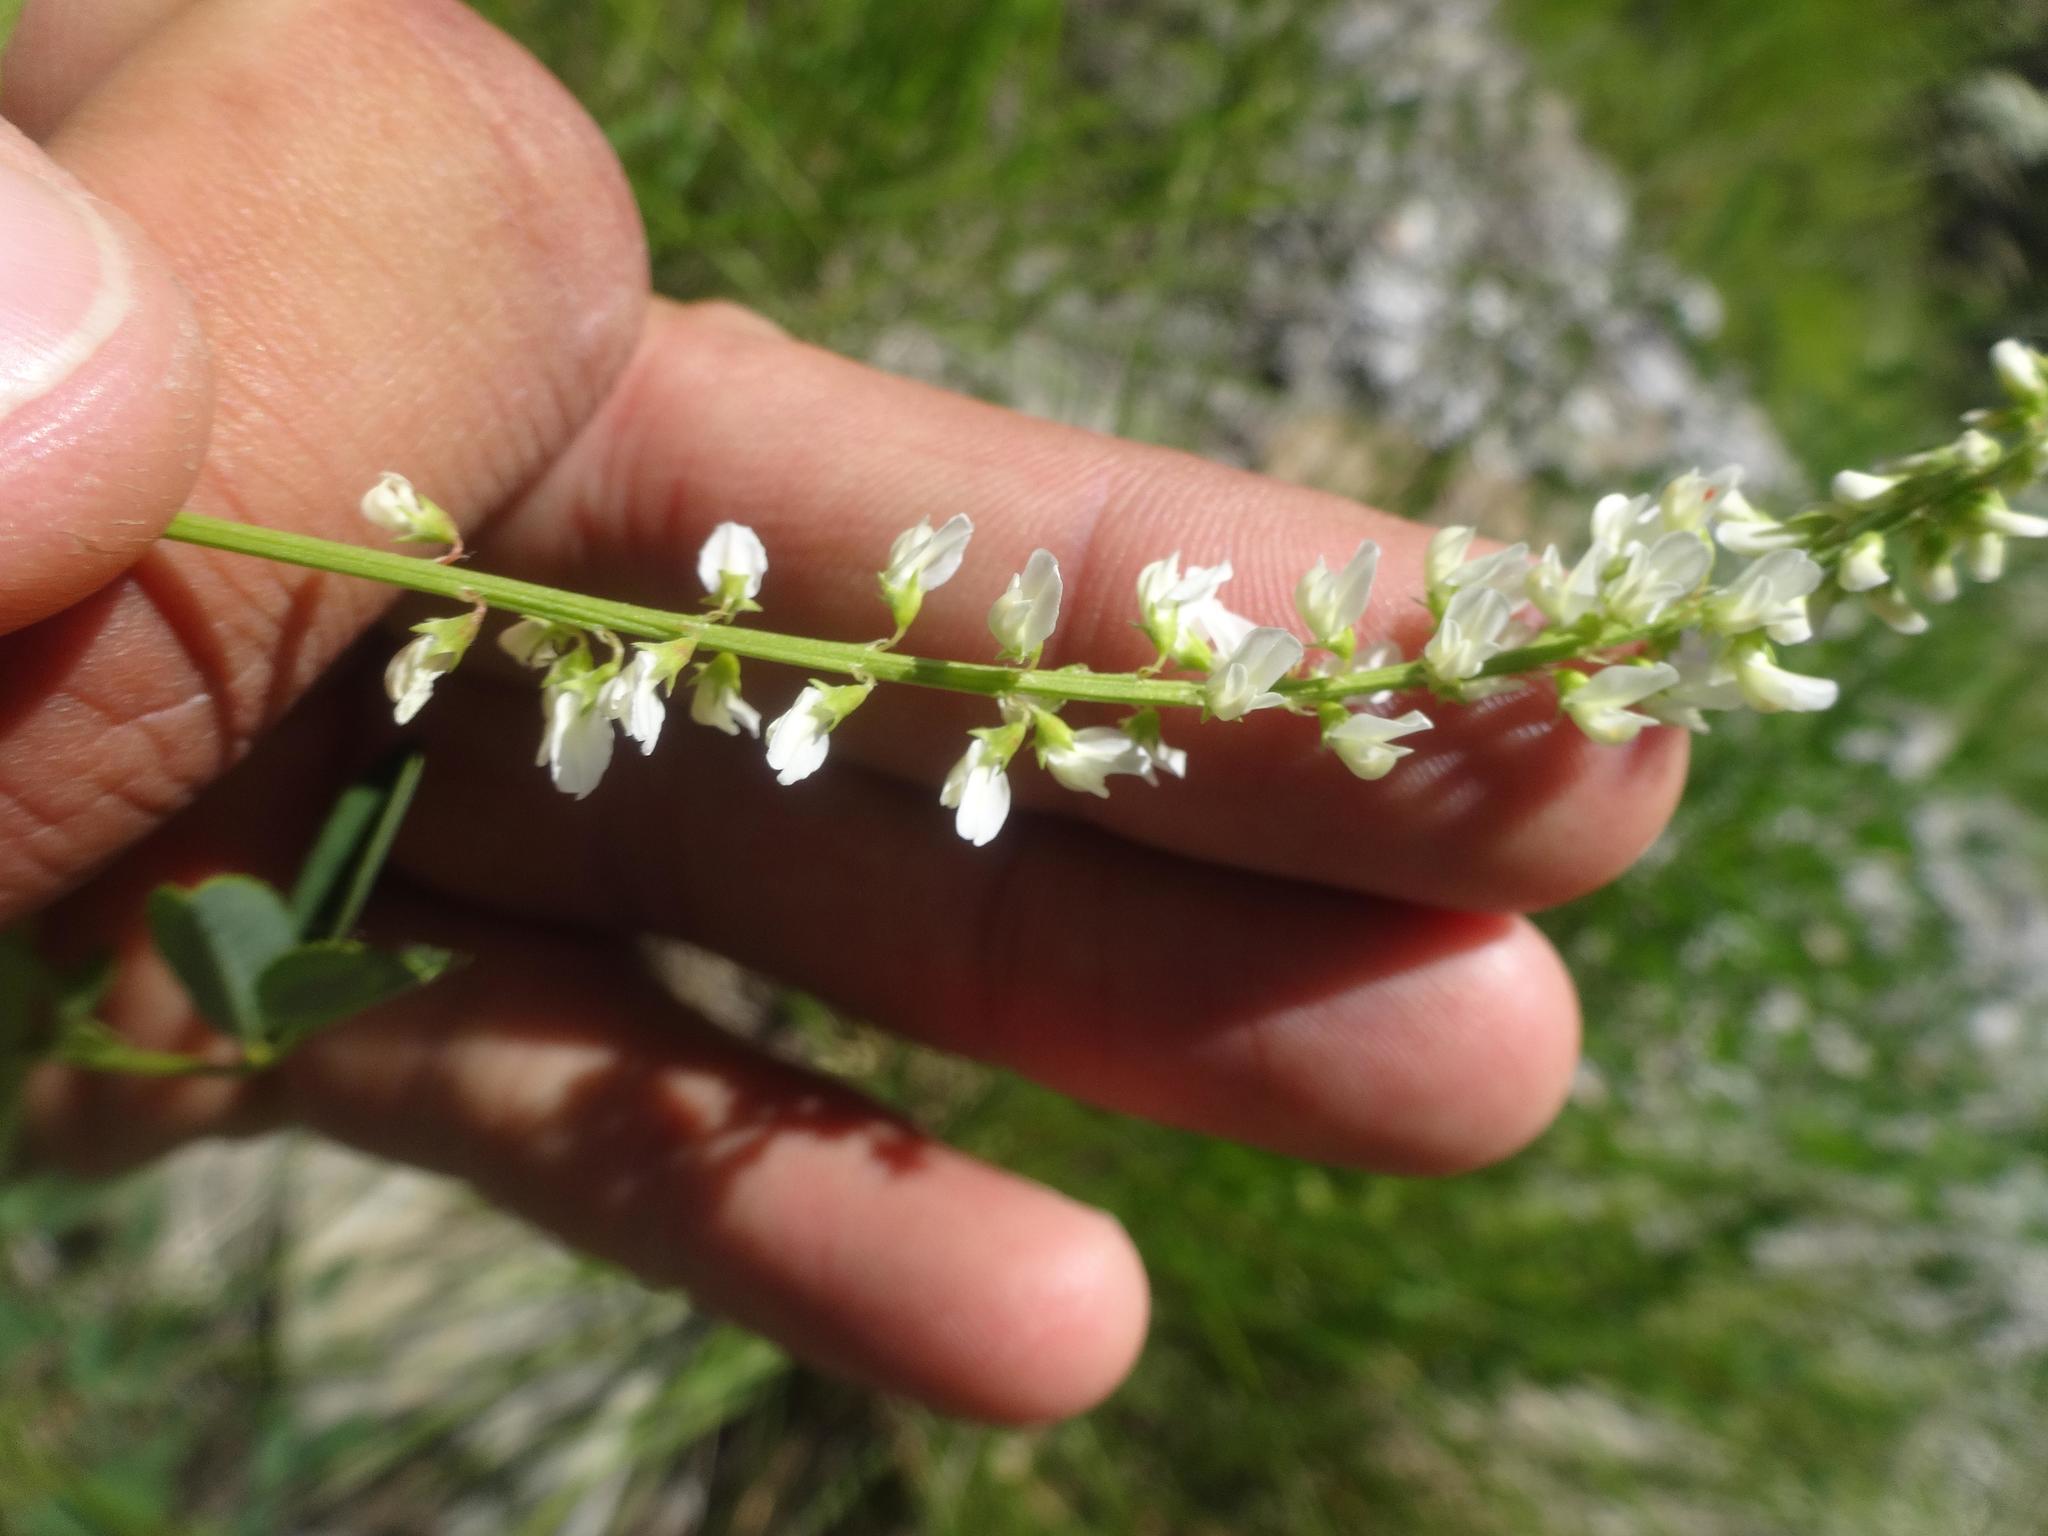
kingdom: Plantae
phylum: Tracheophyta
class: Magnoliopsida
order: Fabales
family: Fabaceae
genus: Melilotus
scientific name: Melilotus albus
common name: White melilot
